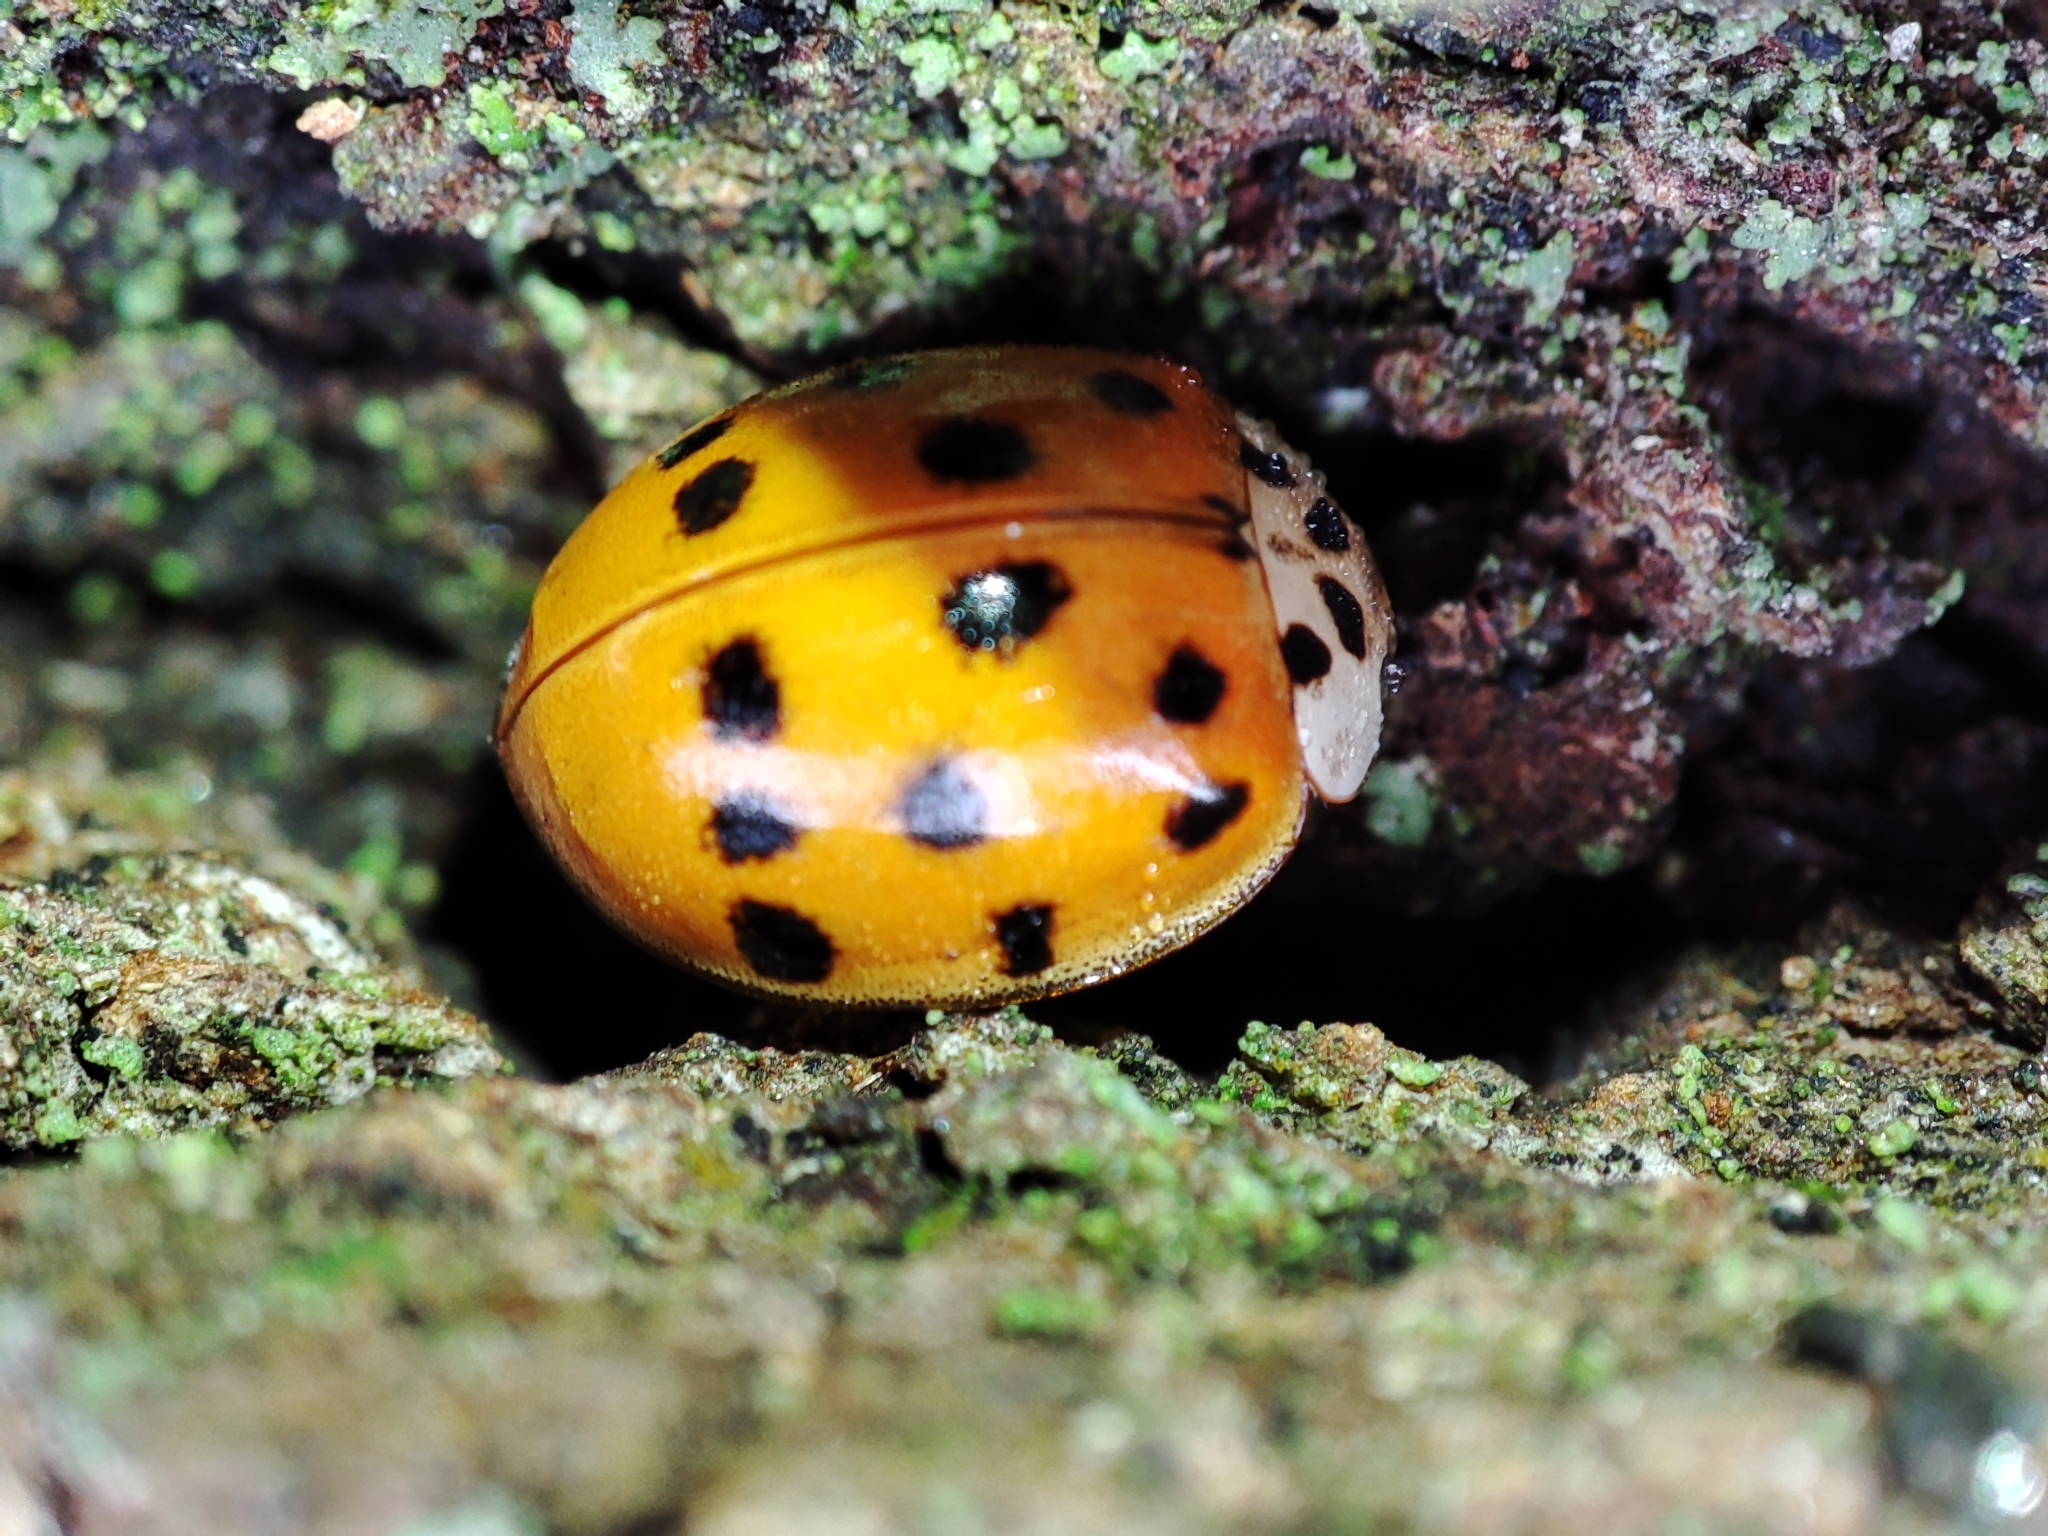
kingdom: Animalia
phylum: Arthropoda
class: Insecta
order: Coleoptera
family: Coccinellidae
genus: Harmonia
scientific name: Harmonia axyridis
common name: Harlequin ladybird
